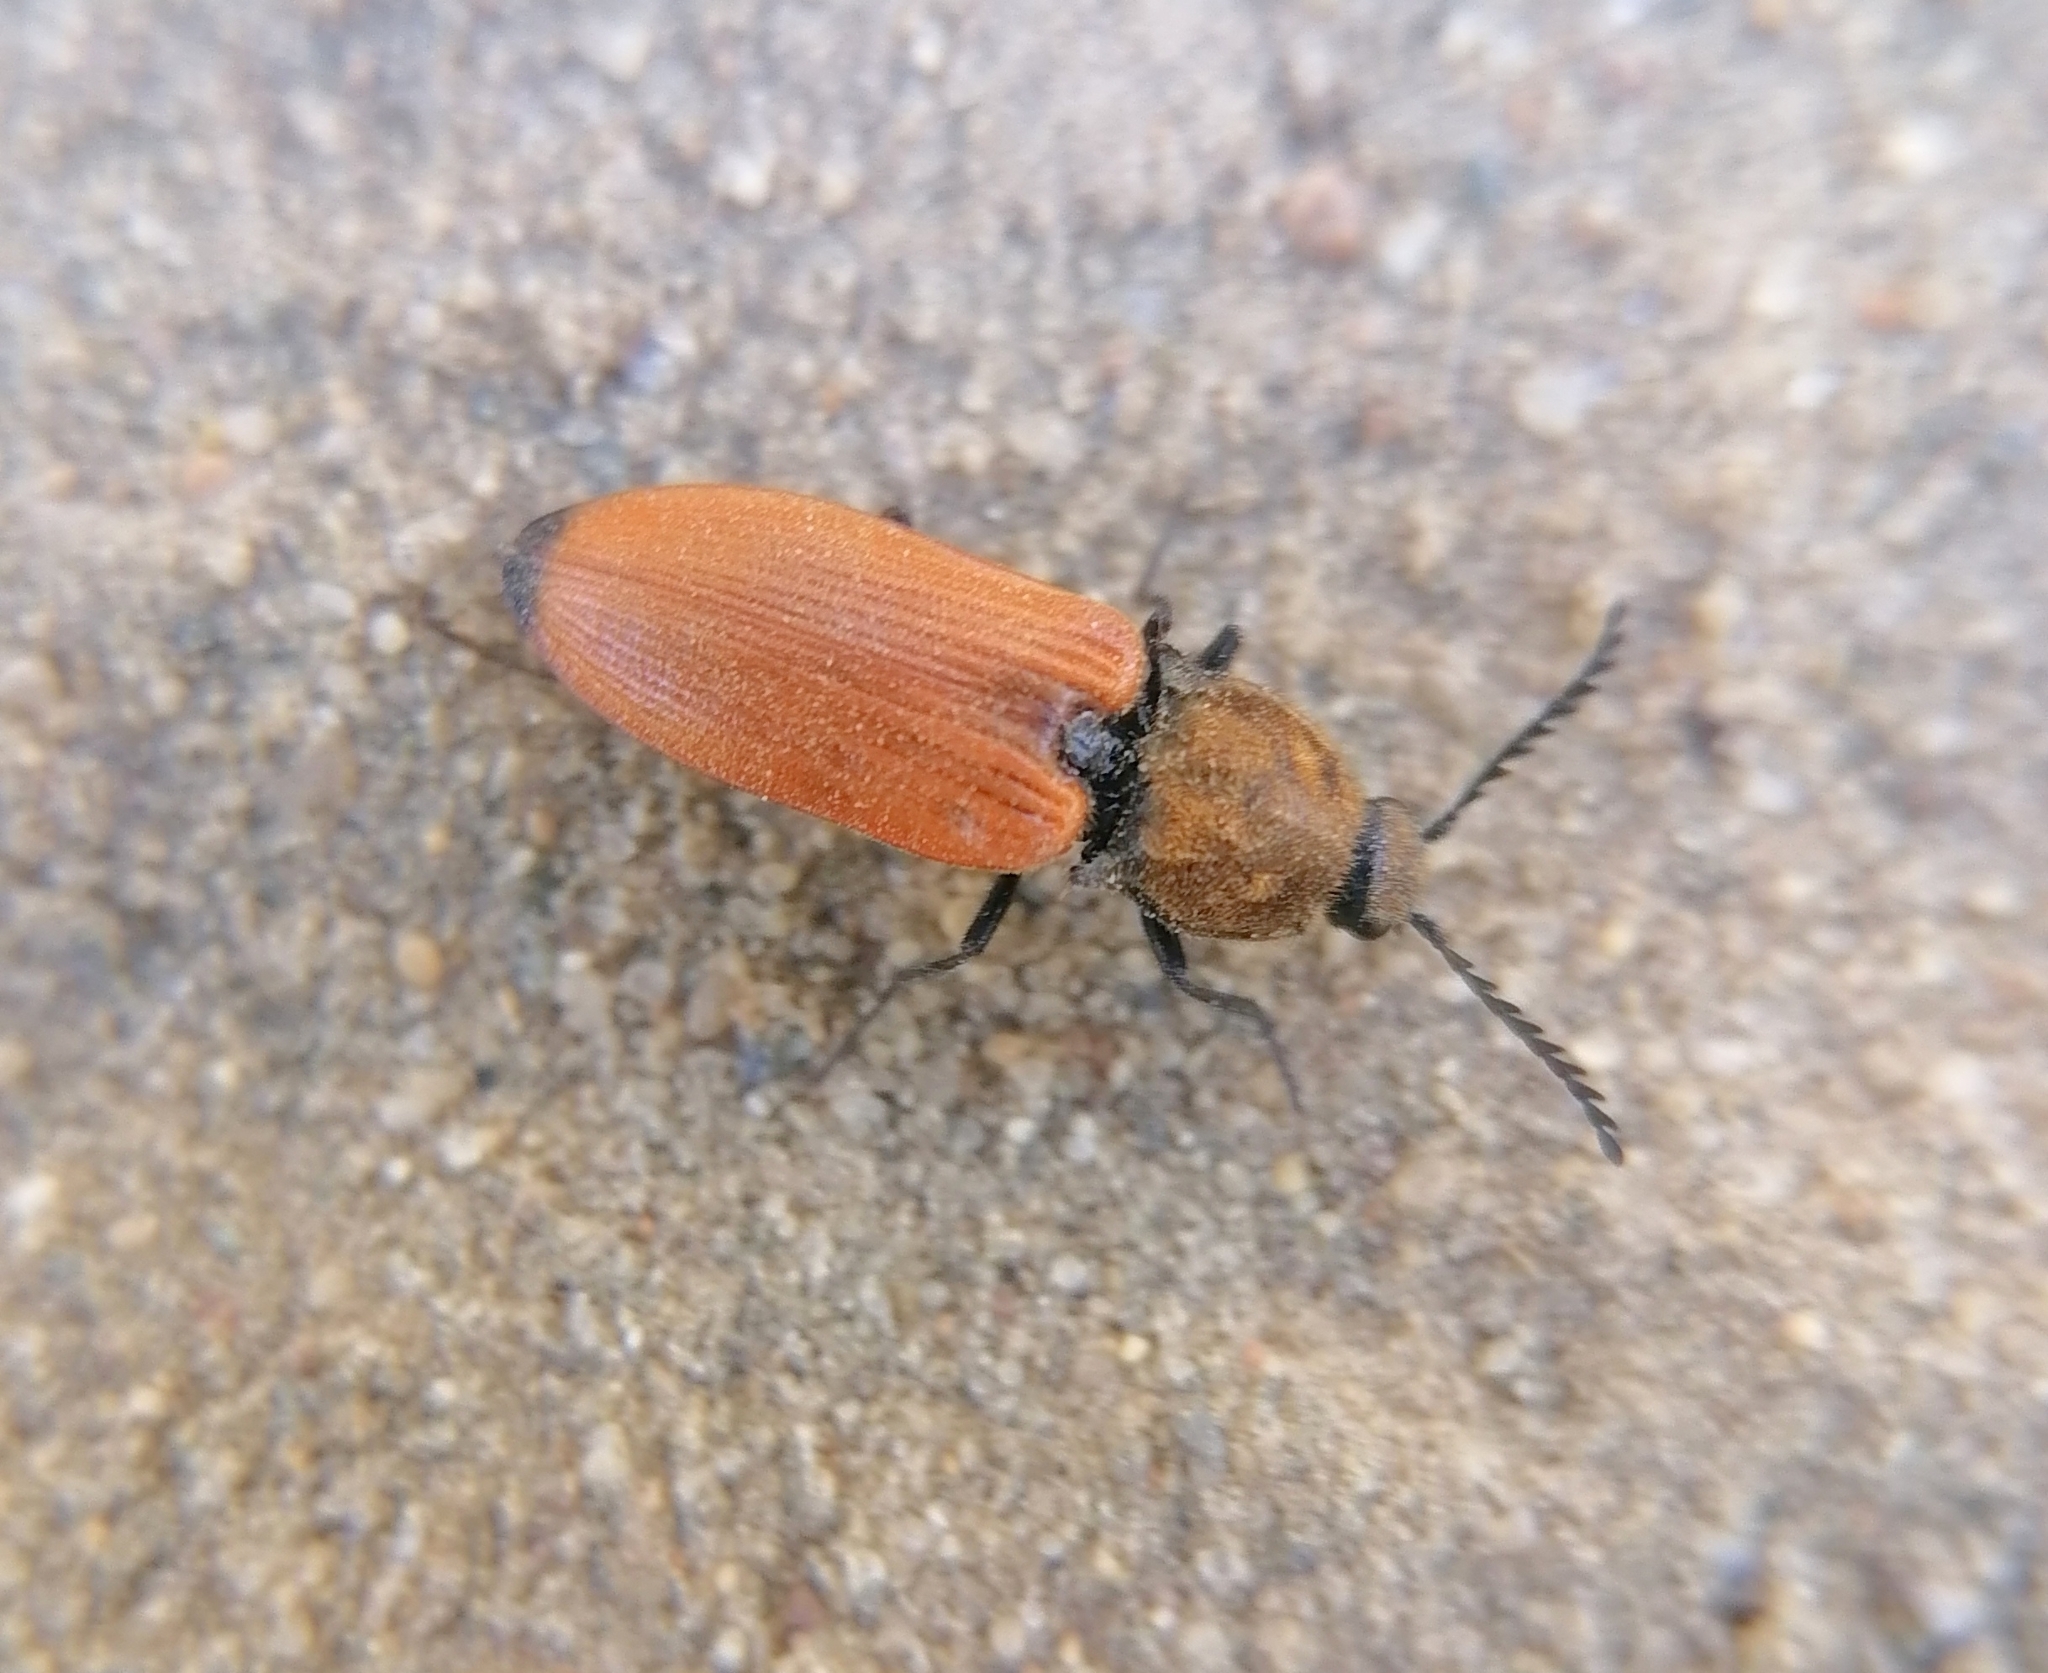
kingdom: Animalia
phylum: Arthropoda
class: Insecta
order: Coleoptera
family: Elateridae
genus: Anostirus
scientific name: Anostirus castaneus
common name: Chestnut coloured click beetle
